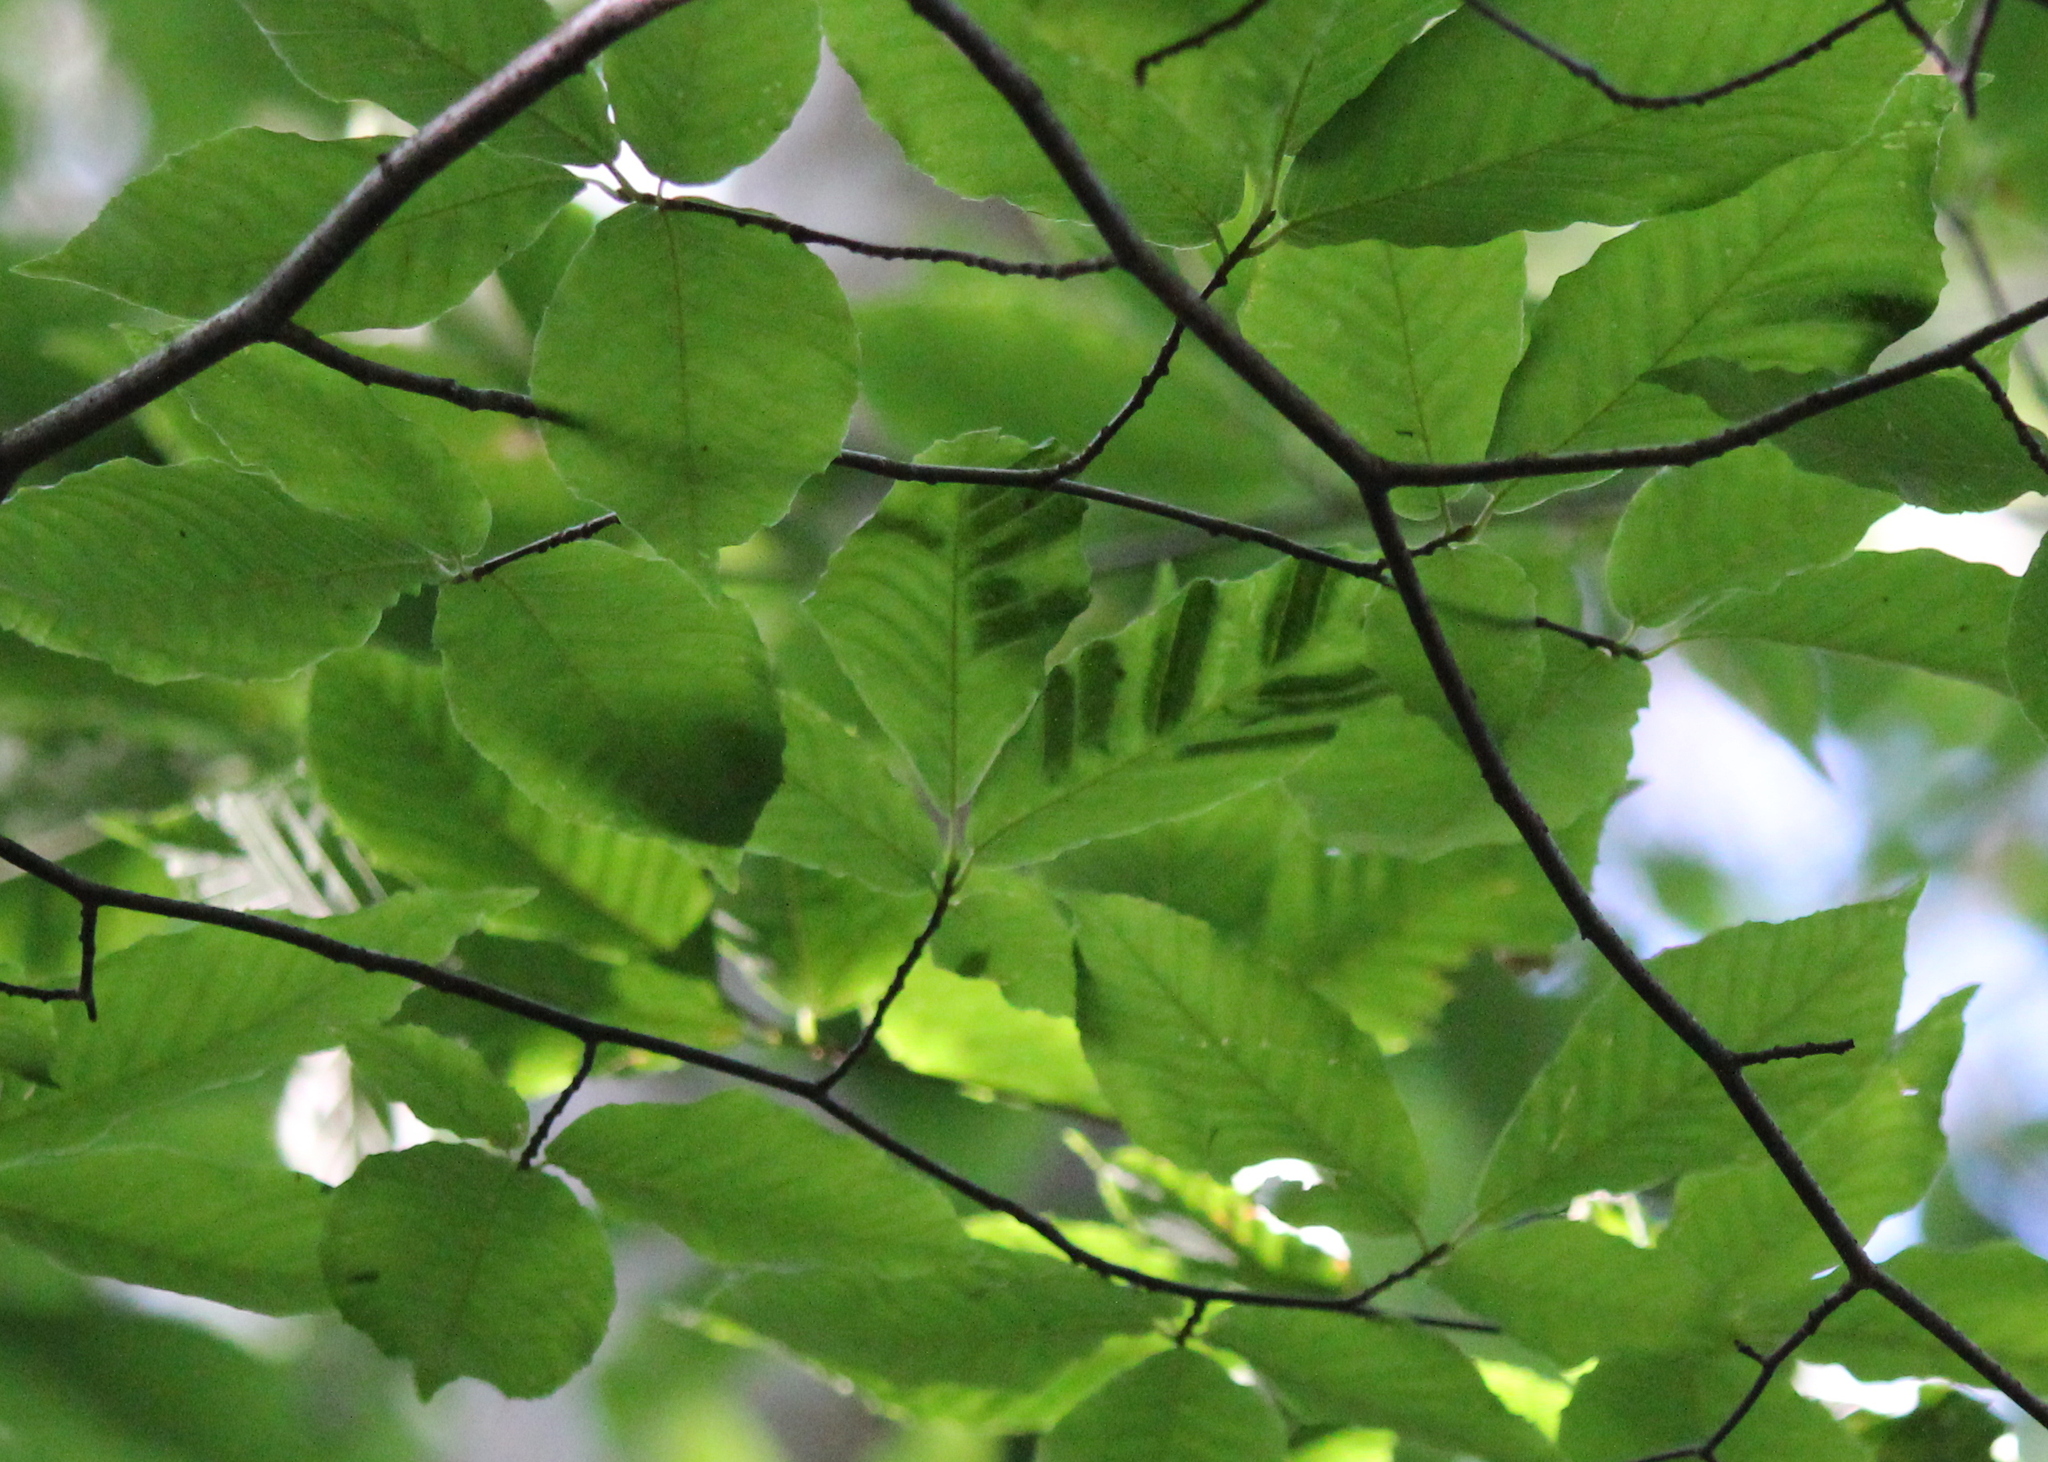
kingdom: Animalia
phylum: Nematoda
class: Chromadorea
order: Rhabditida
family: Anguinidae
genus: Litylenchus
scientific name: Litylenchus crenatae
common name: Beech leaf disease
